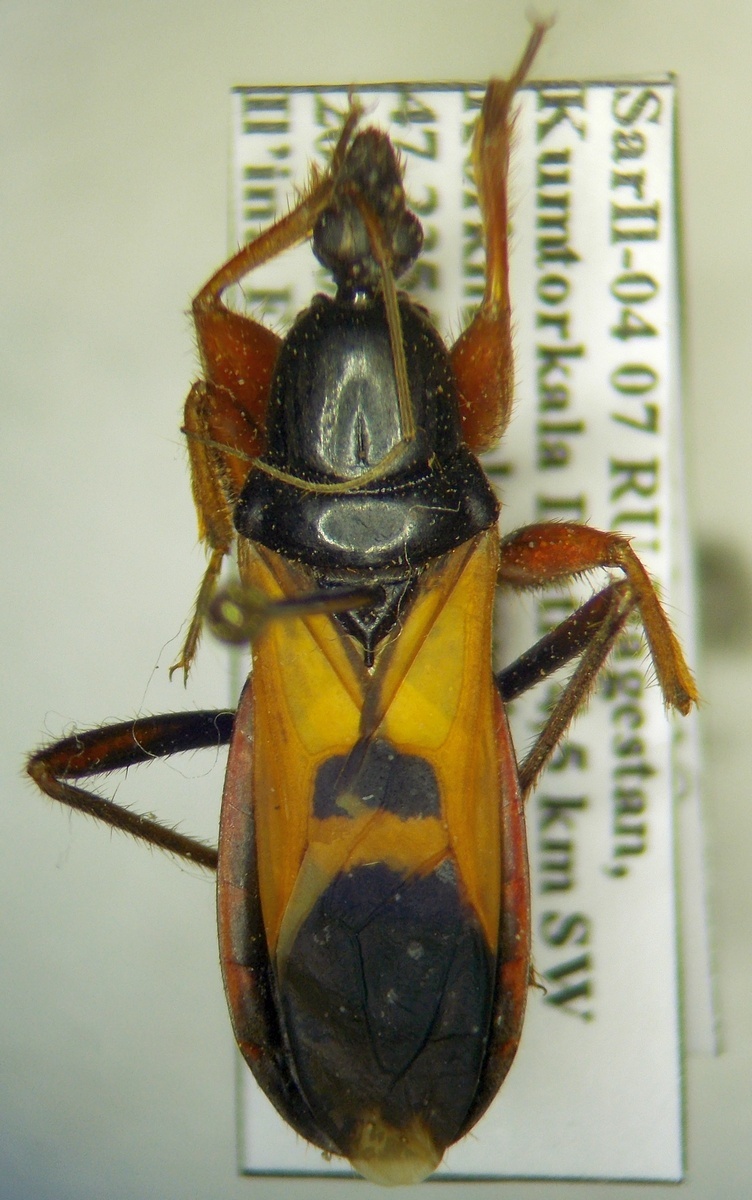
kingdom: Animalia
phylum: Arthropoda
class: Insecta
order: Hemiptera
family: Reduviidae
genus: Ectomocoris
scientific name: Ectomocoris ululans
